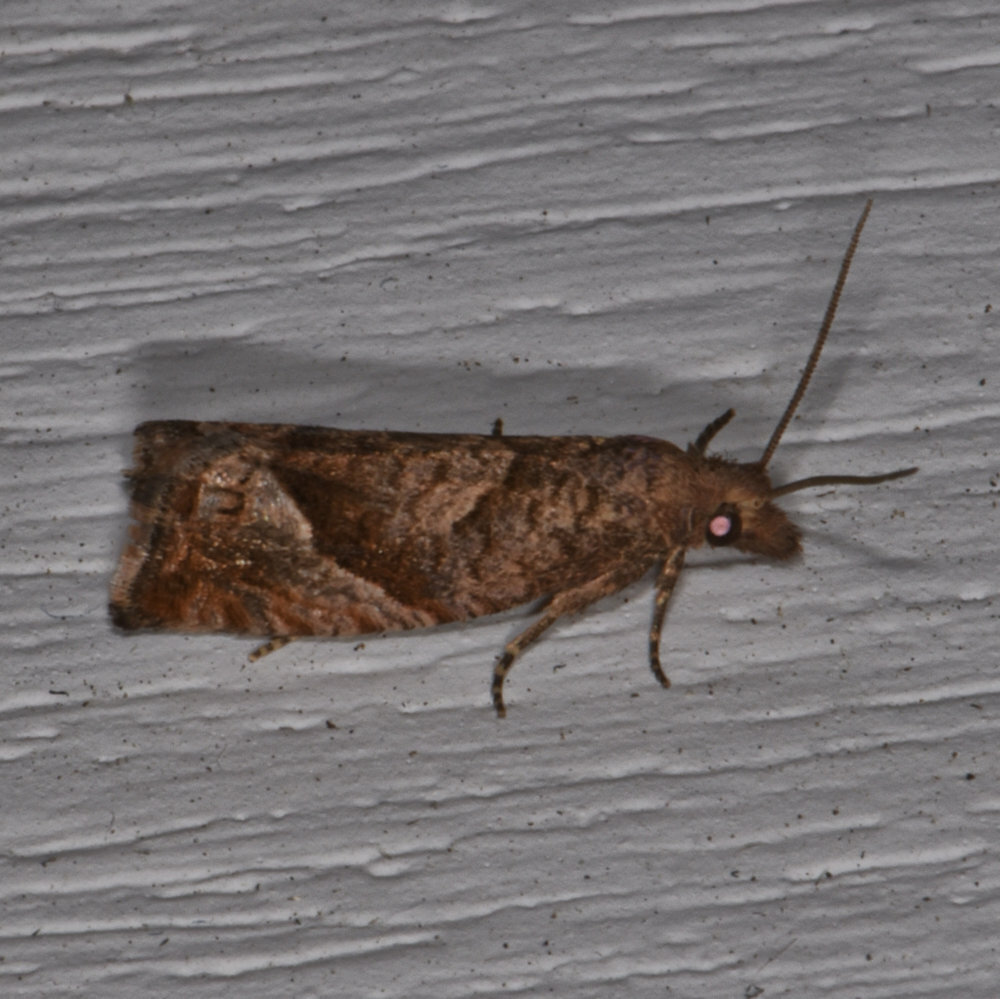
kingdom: Animalia
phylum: Arthropoda
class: Insecta
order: Lepidoptera
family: Tortricidae
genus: Pelochrista
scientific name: Pelochrista derelicta
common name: Derelict pelochrista moth
